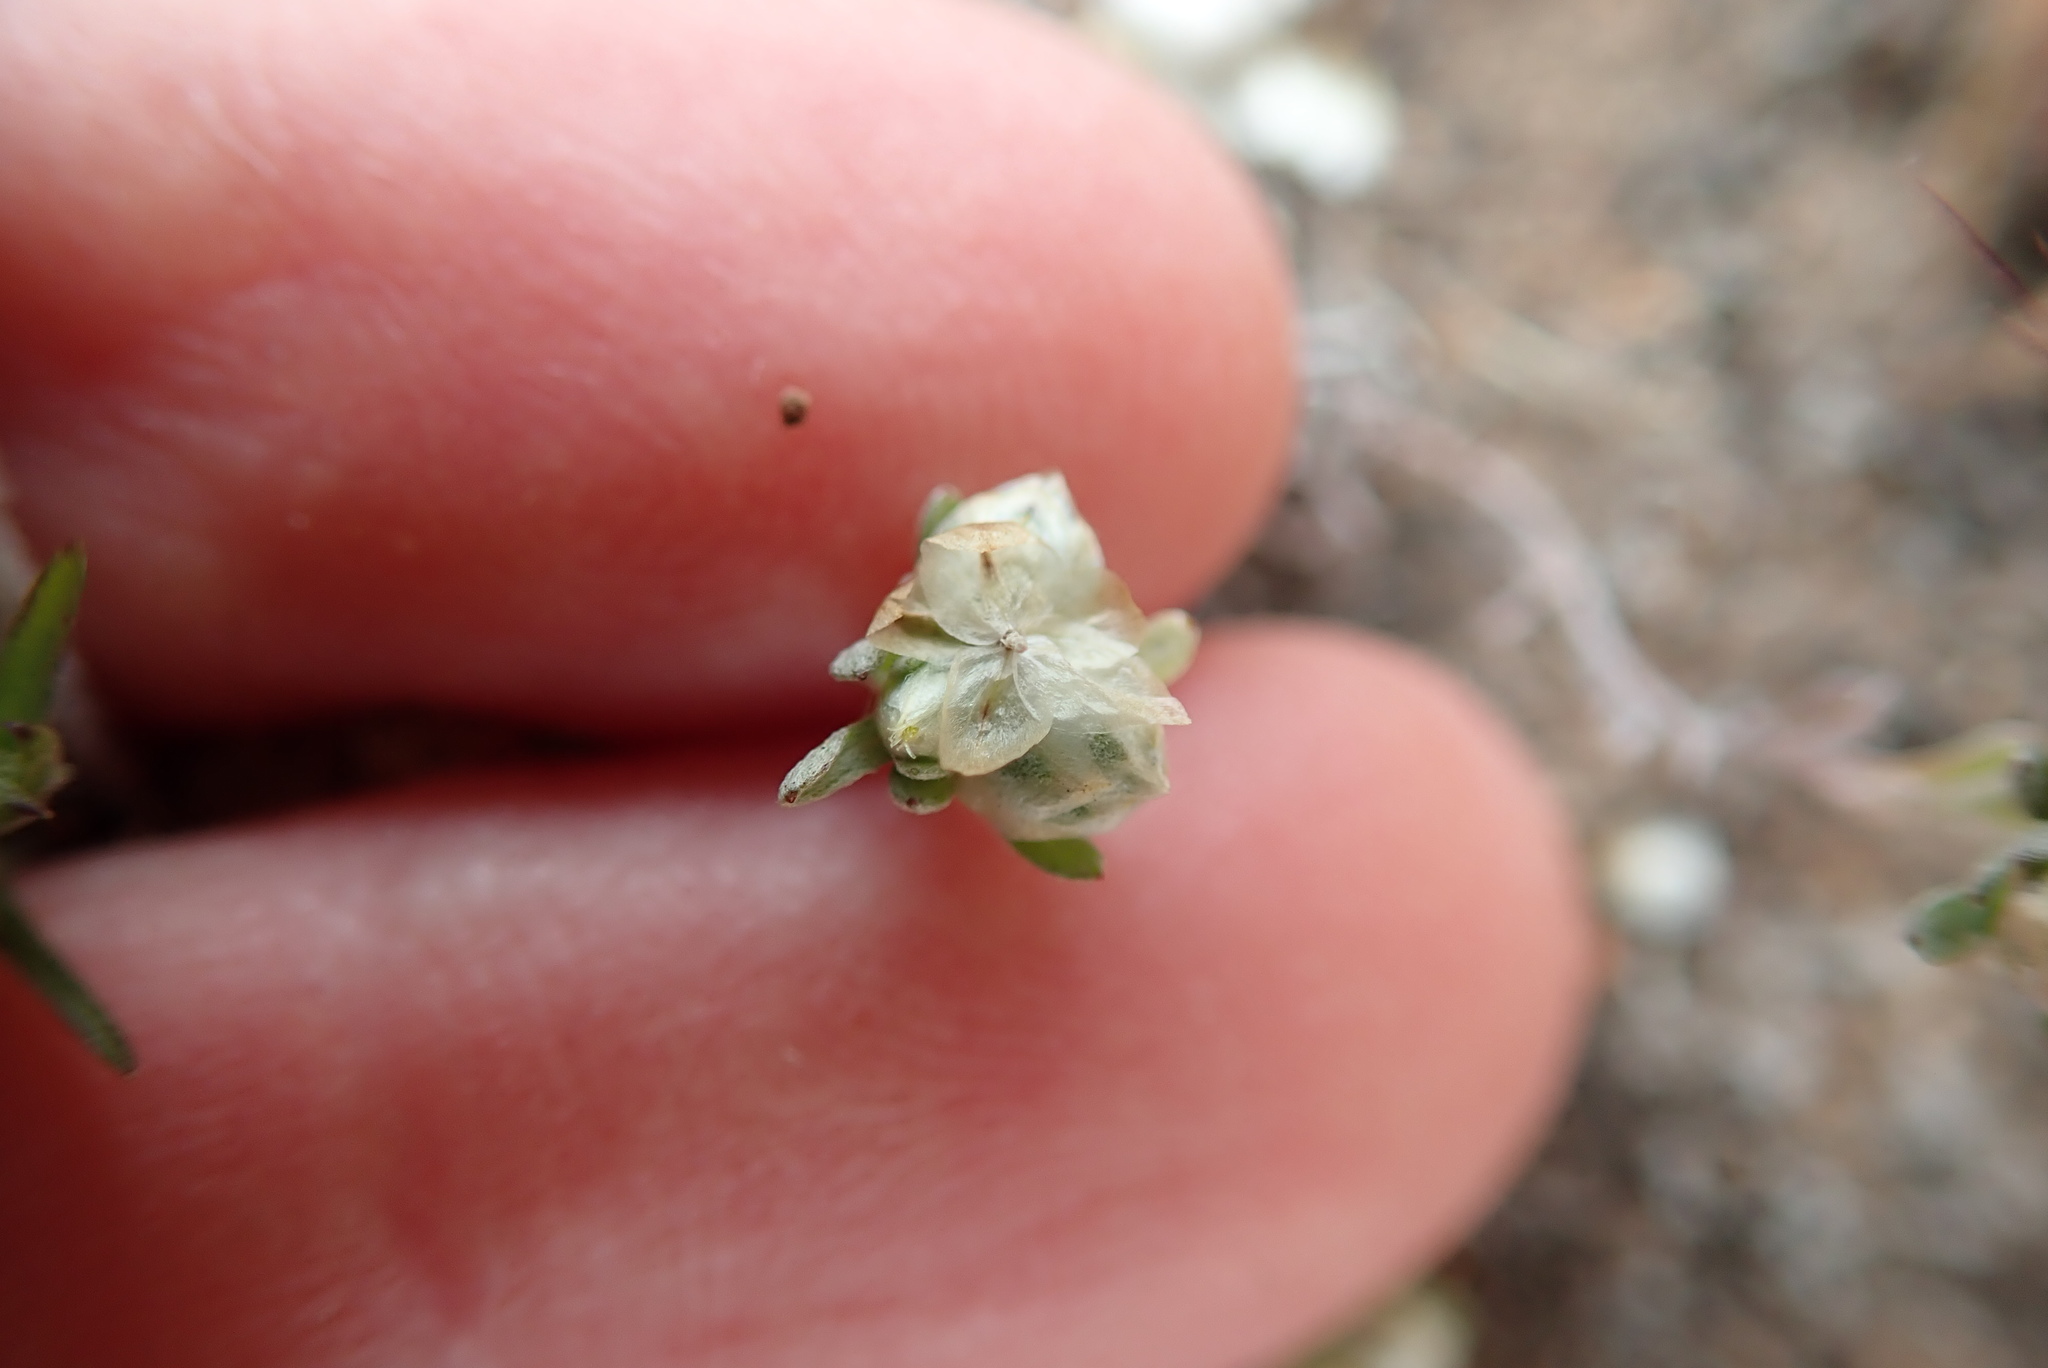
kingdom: Plantae
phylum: Tracheophyta
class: Magnoliopsida
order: Asterales
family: Asteraceae
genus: Stylocline
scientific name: Stylocline gnaphaloides
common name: Everlasting nest-straw
